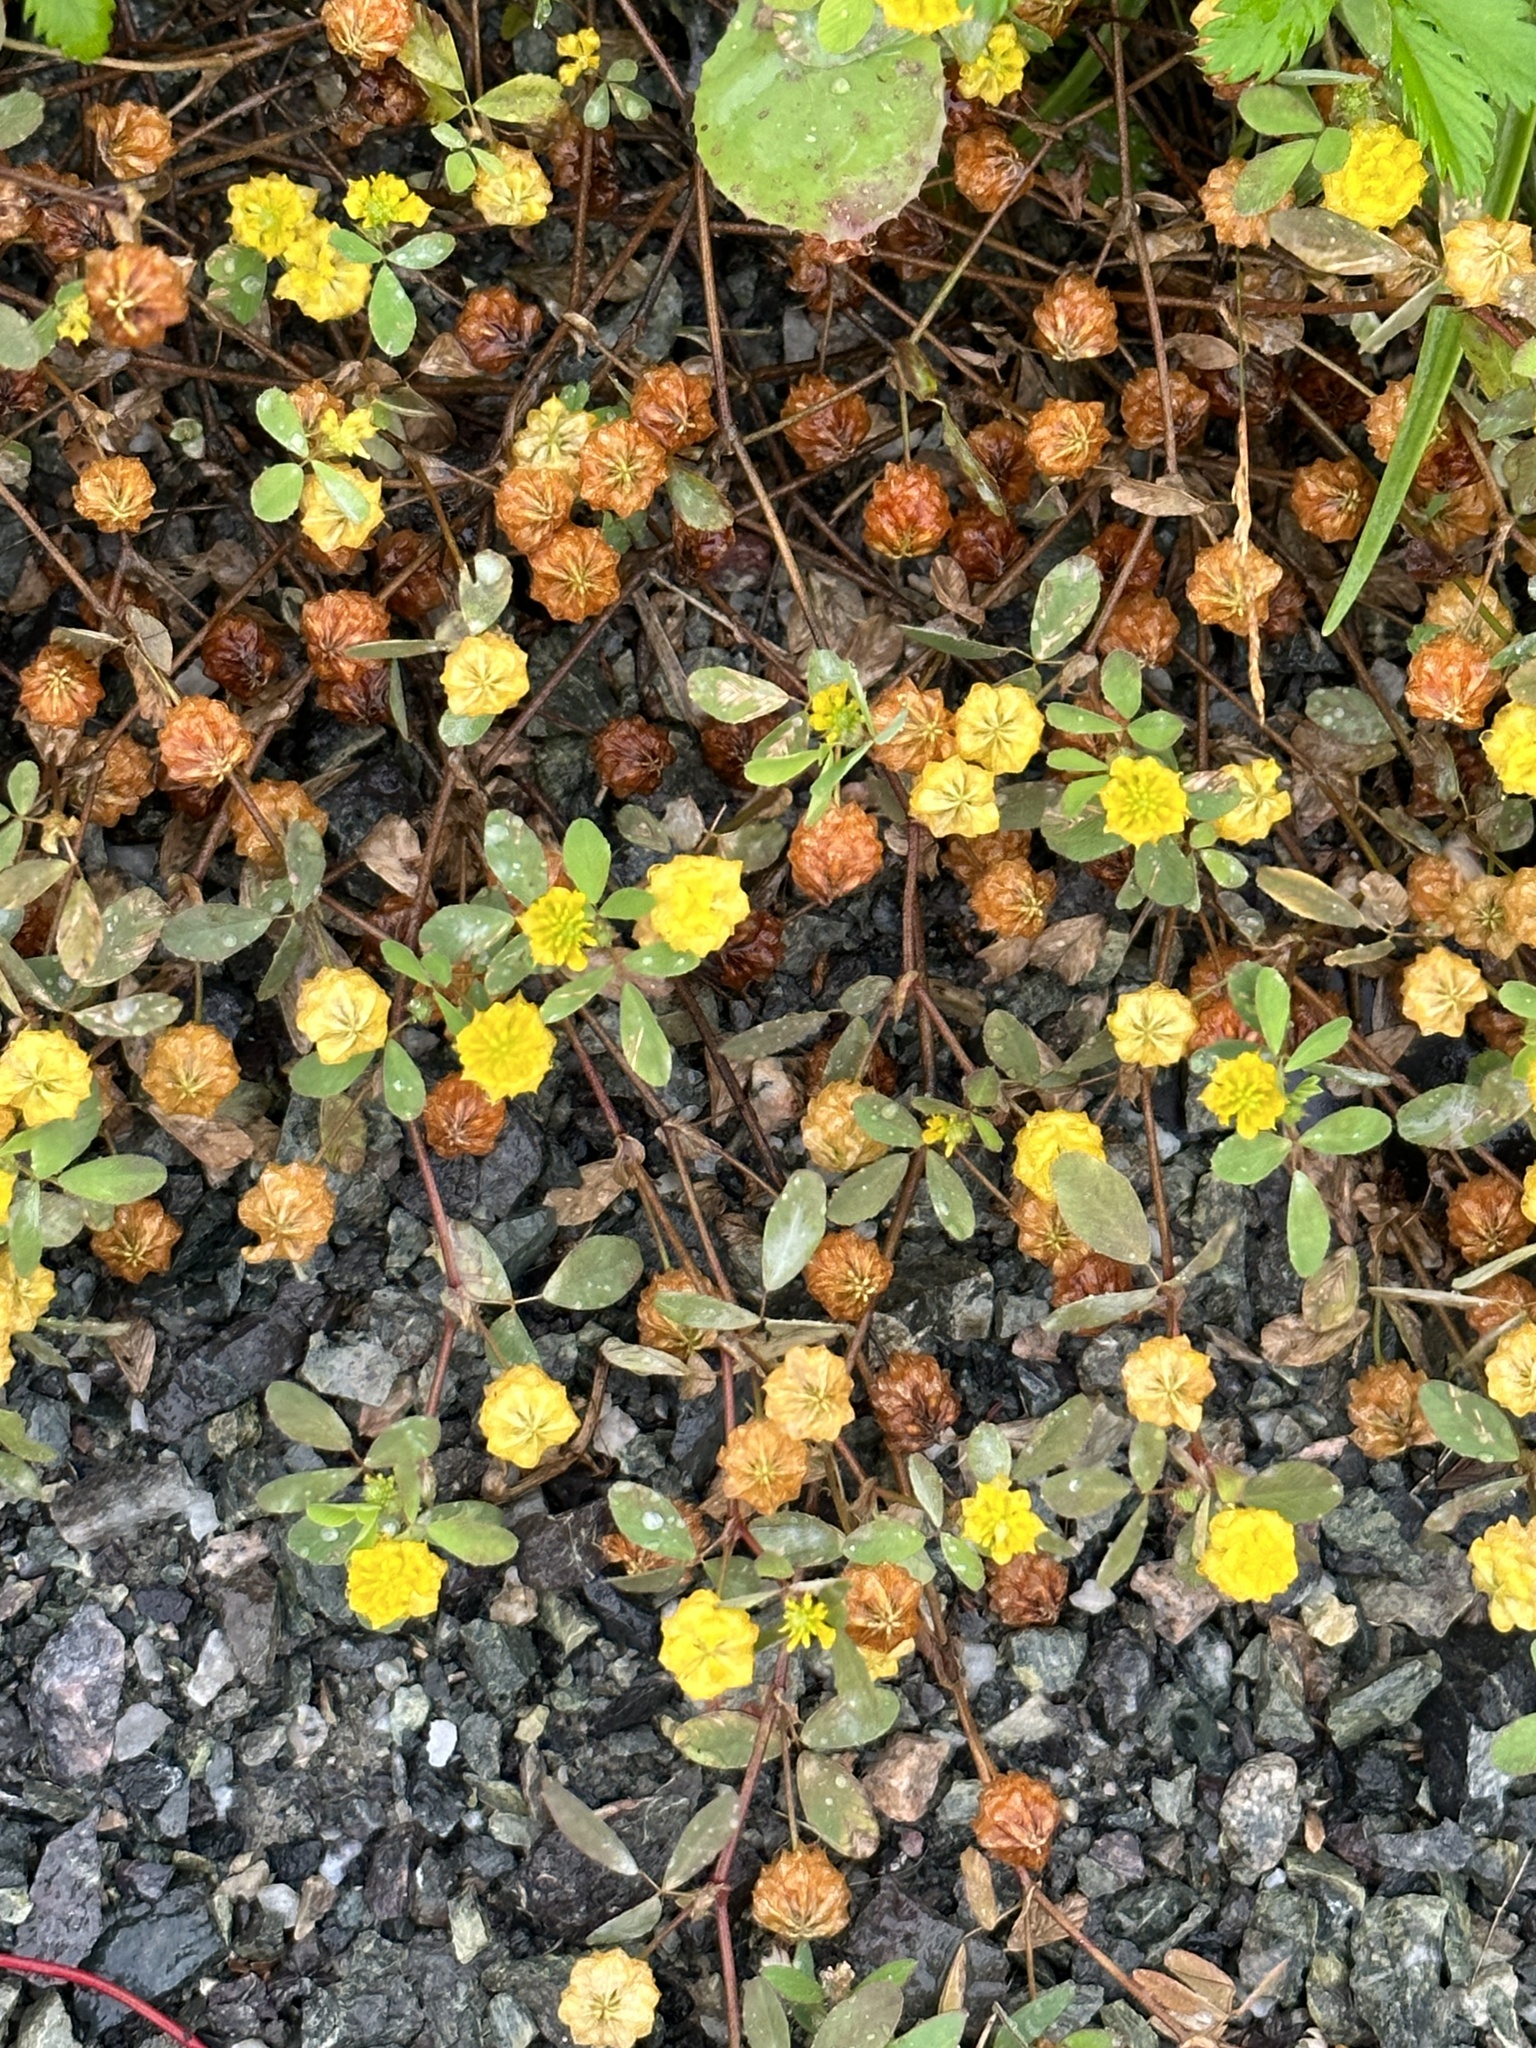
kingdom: Plantae
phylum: Tracheophyta
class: Magnoliopsida
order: Fabales
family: Fabaceae
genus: Trifolium
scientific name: Trifolium campestre
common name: Field clover
